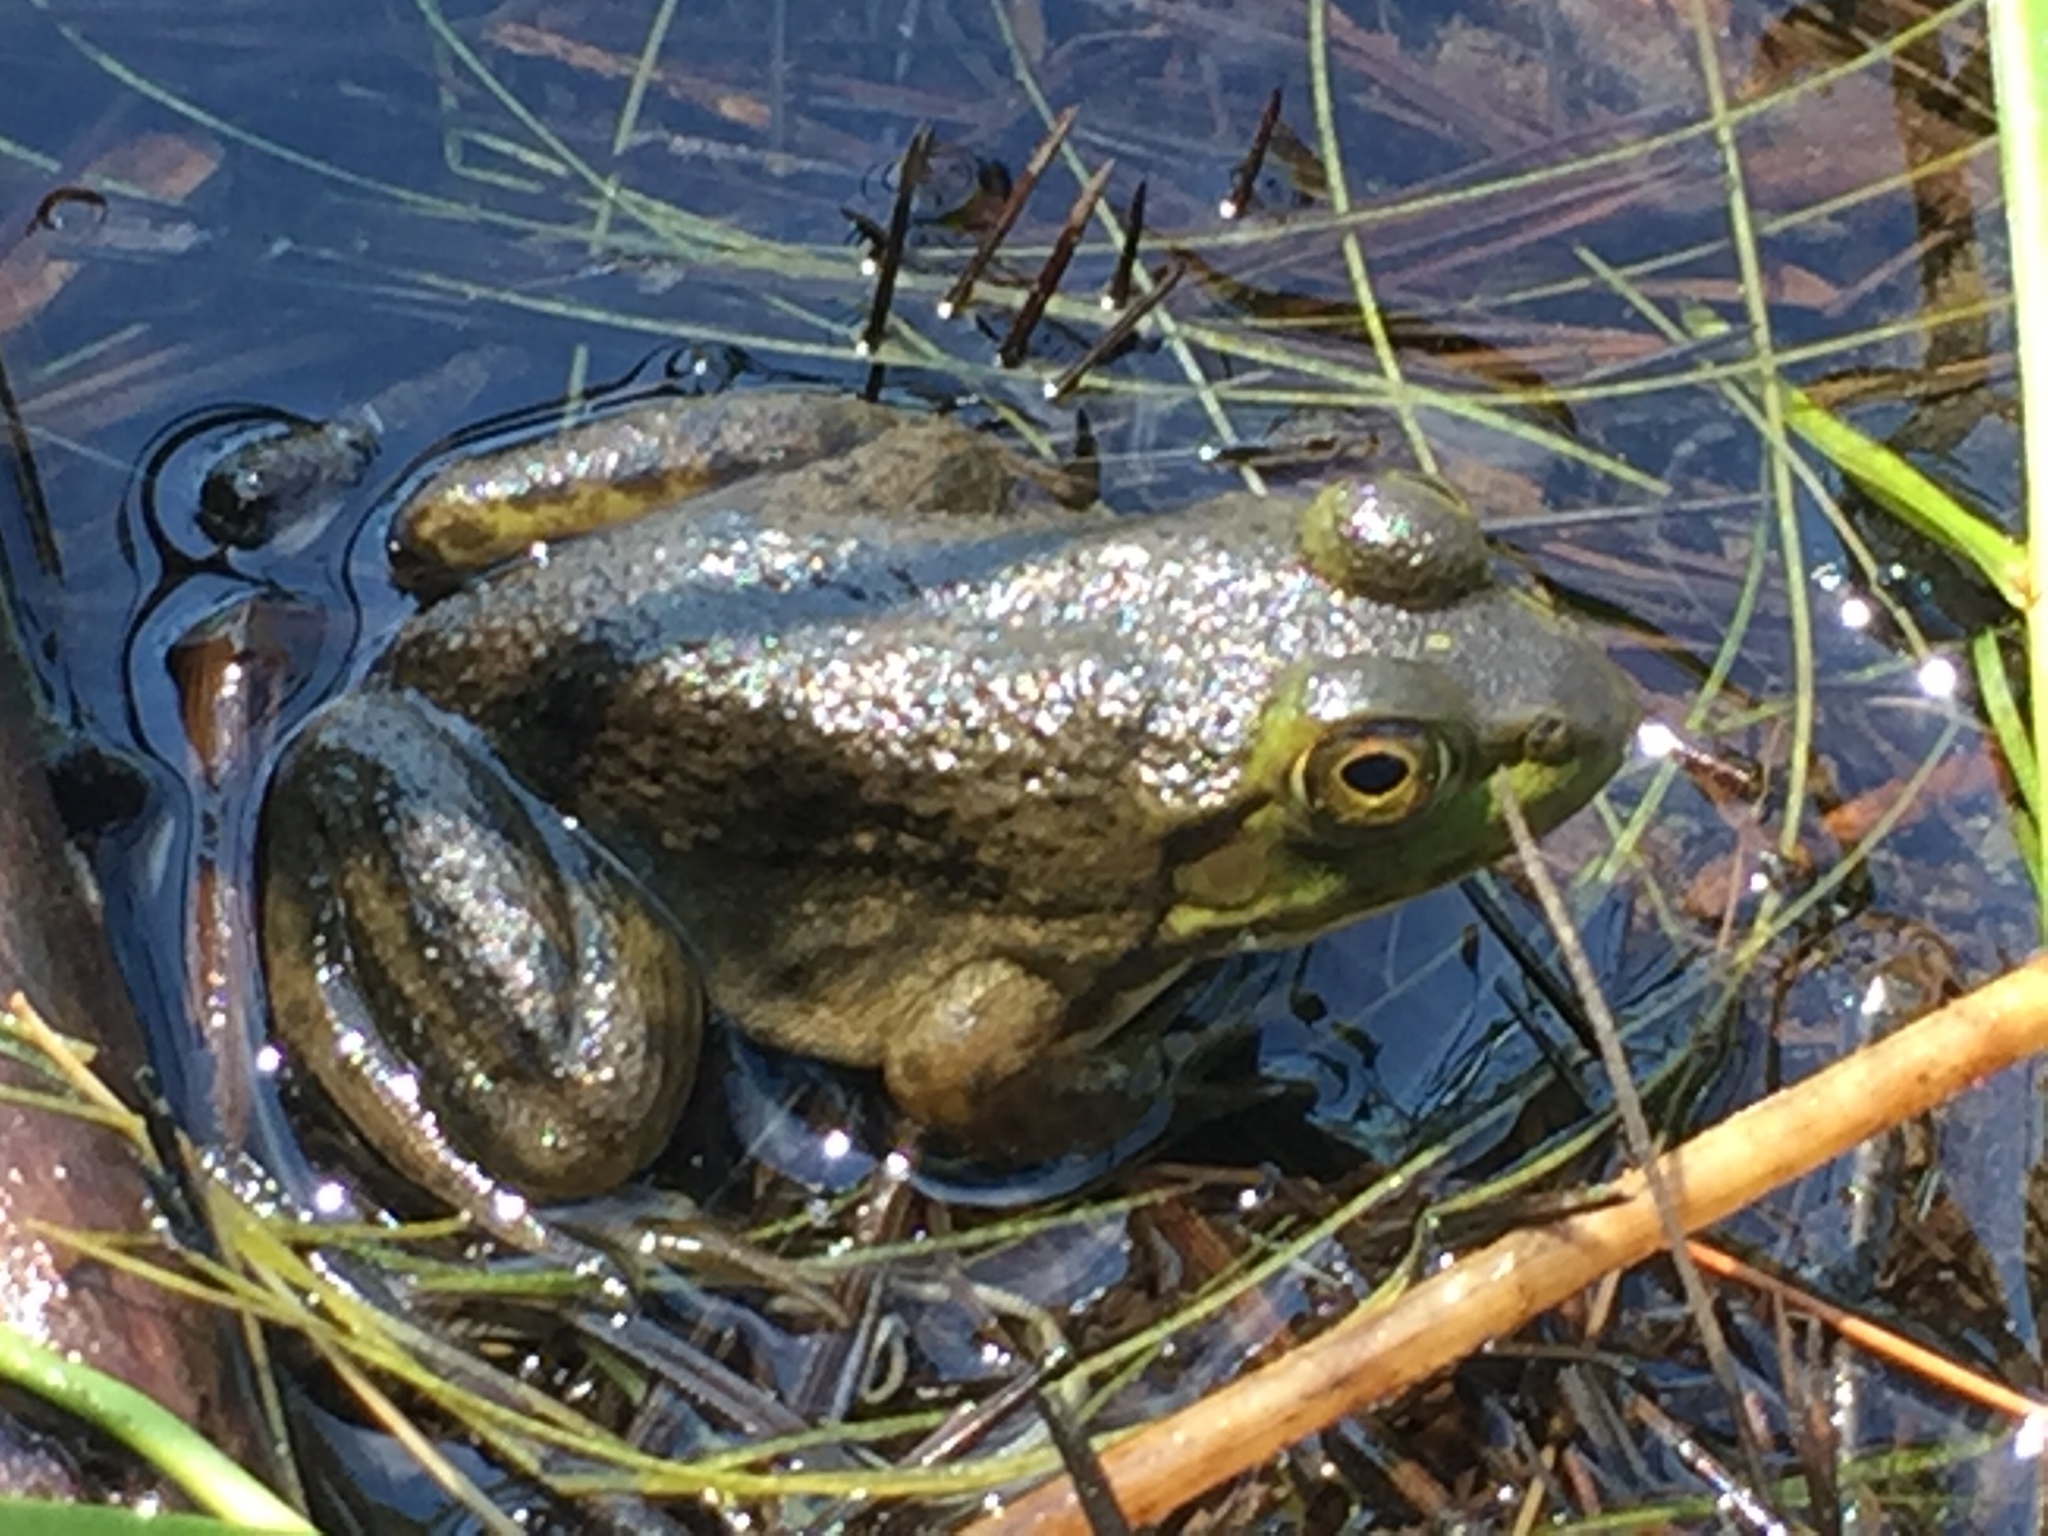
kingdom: Animalia
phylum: Chordata
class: Amphibia
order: Anura
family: Ranidae
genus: Lithobates
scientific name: Lithobates catesbeianus
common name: American bullfrog
